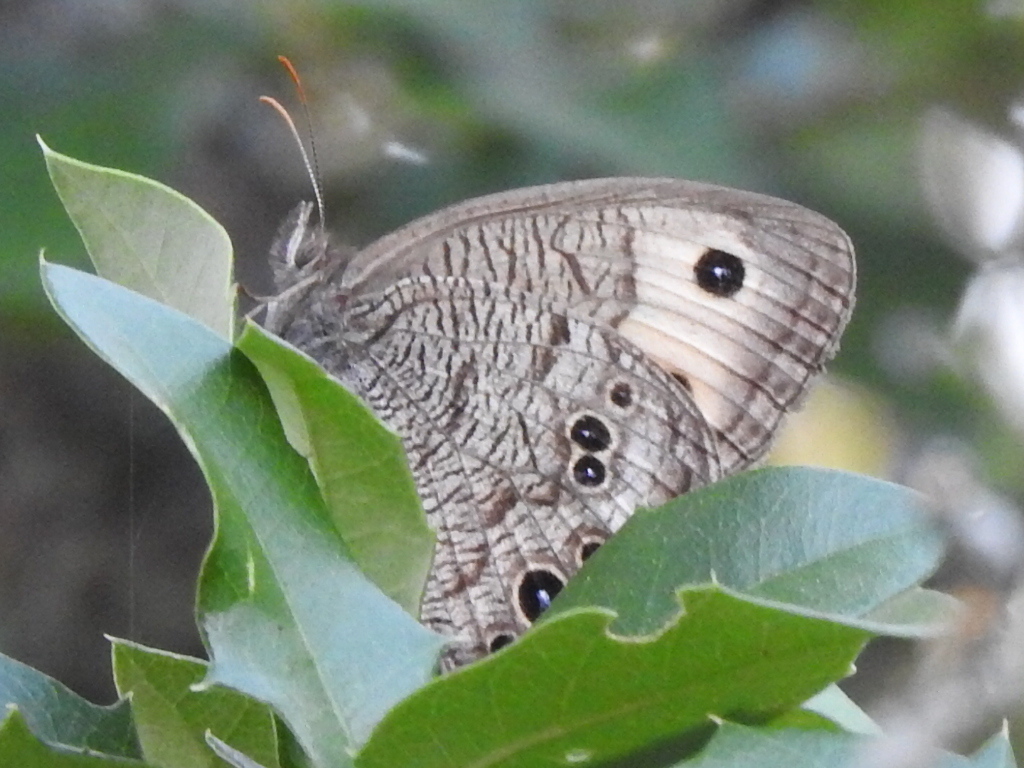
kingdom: Animalia
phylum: Arthropoda
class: Insecta
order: Lepidoptera
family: Nymphalidae
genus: Cercyonis
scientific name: Cercyonis pegala
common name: Common wood-nymph
